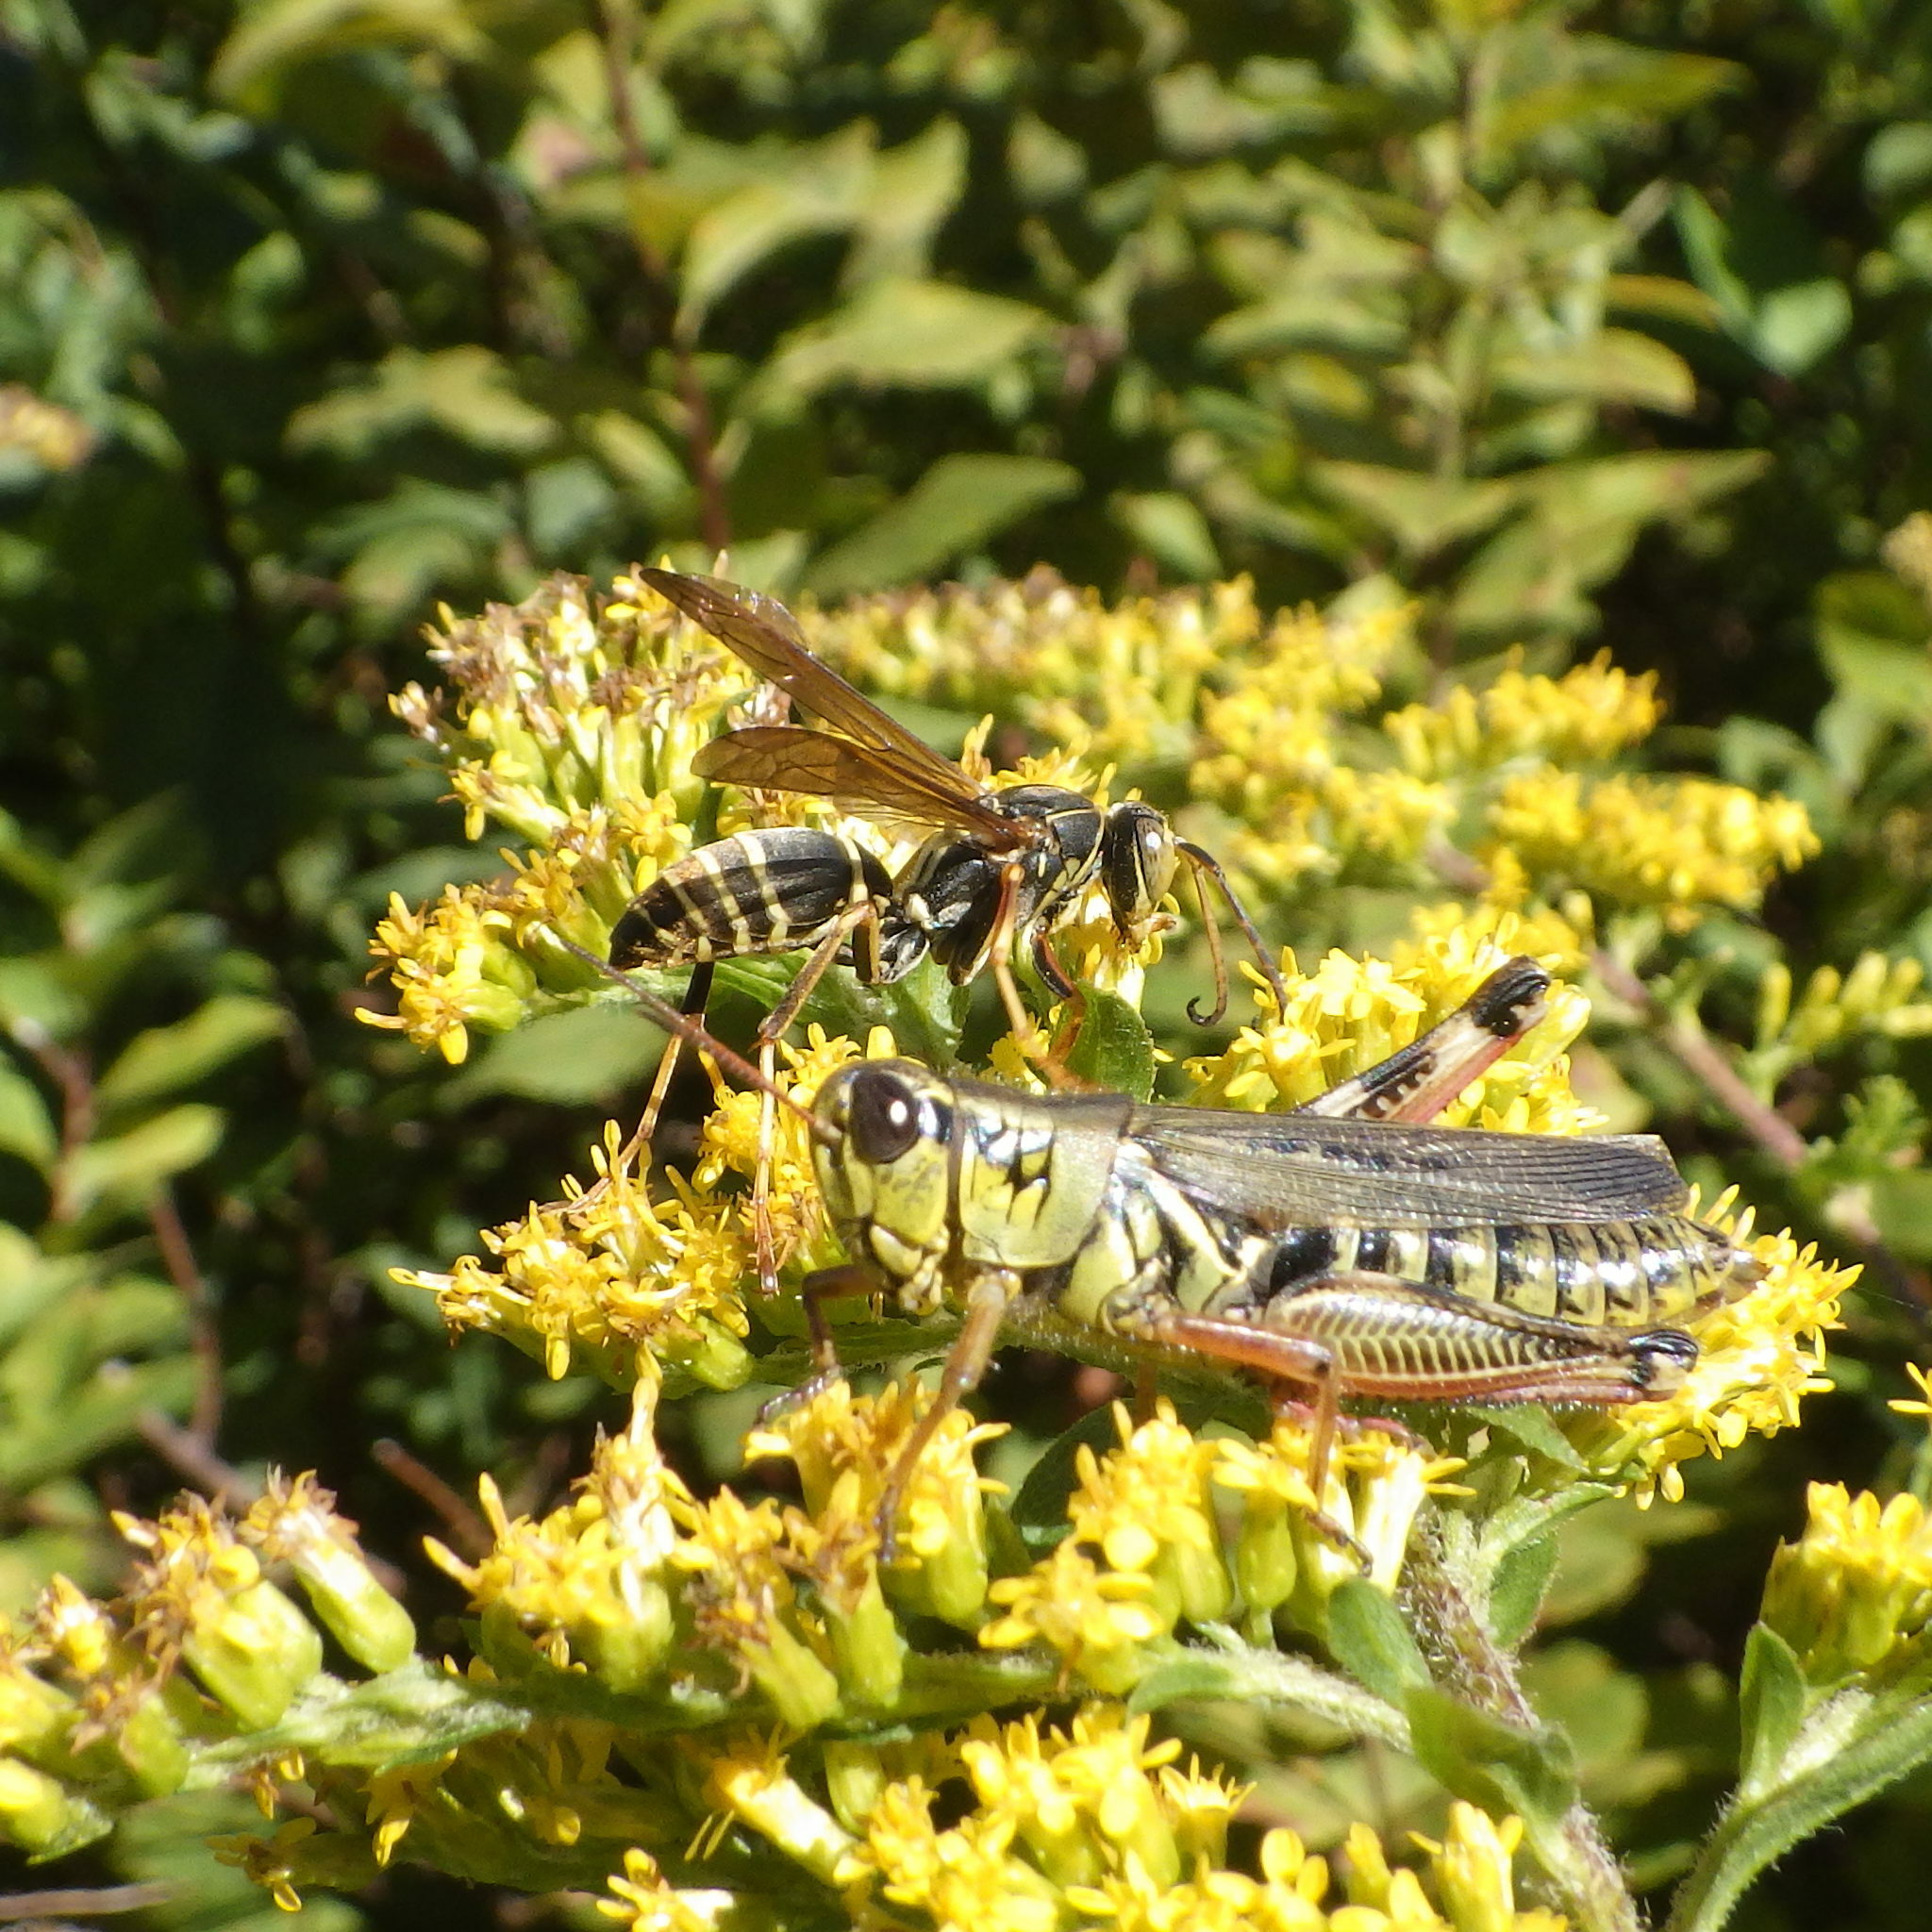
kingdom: Animalia
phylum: Arthropoda
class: Insecta
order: Hymenoptera
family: Eumenidae
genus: Polistes
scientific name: Polistes fuscatus
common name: Dark paper wasp
